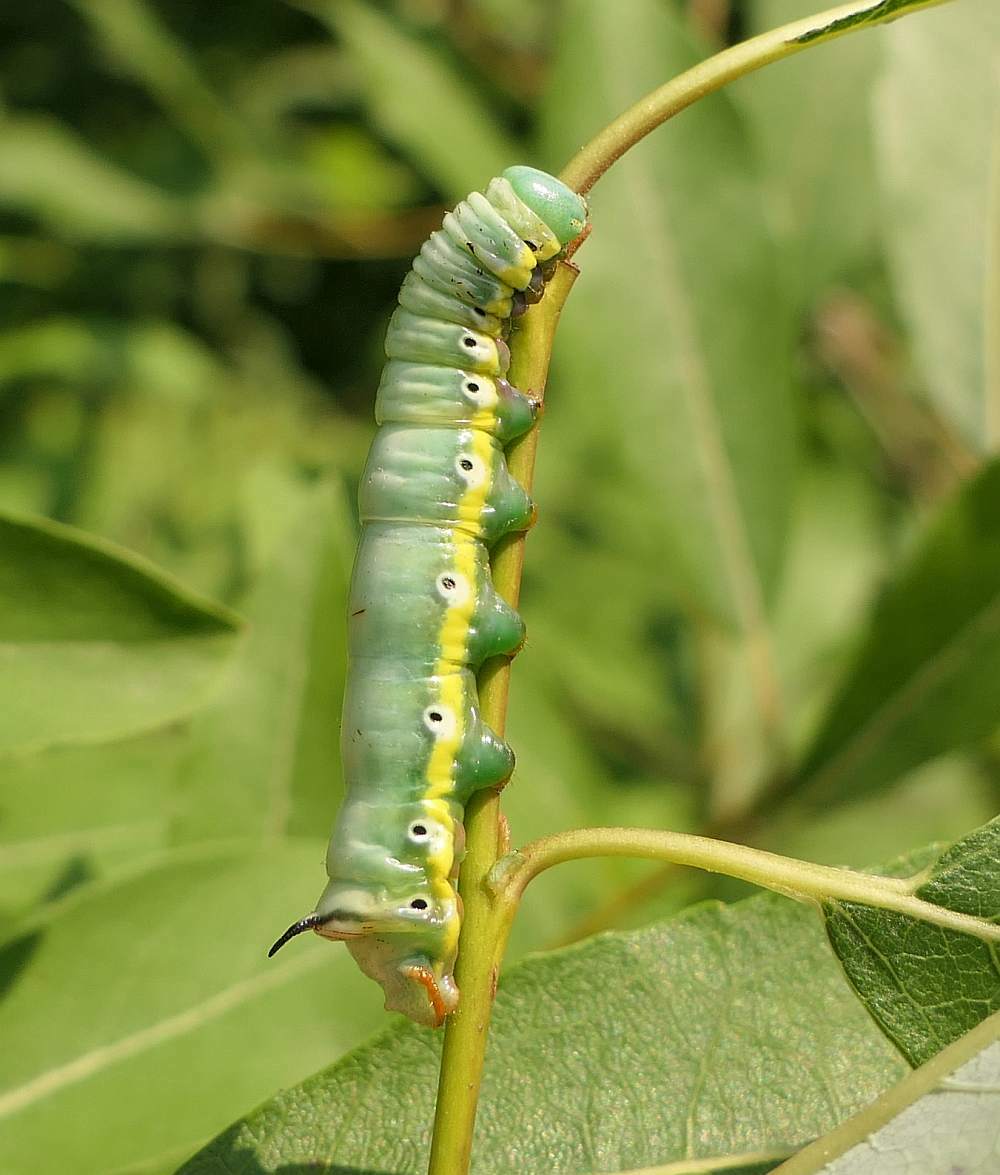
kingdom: Animalia
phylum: Arthropoda
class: Insecta
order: Lepidoptera
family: Notodontidae
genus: Pheosia
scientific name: Pheosia rimosa
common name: Black-rimmed prominent
